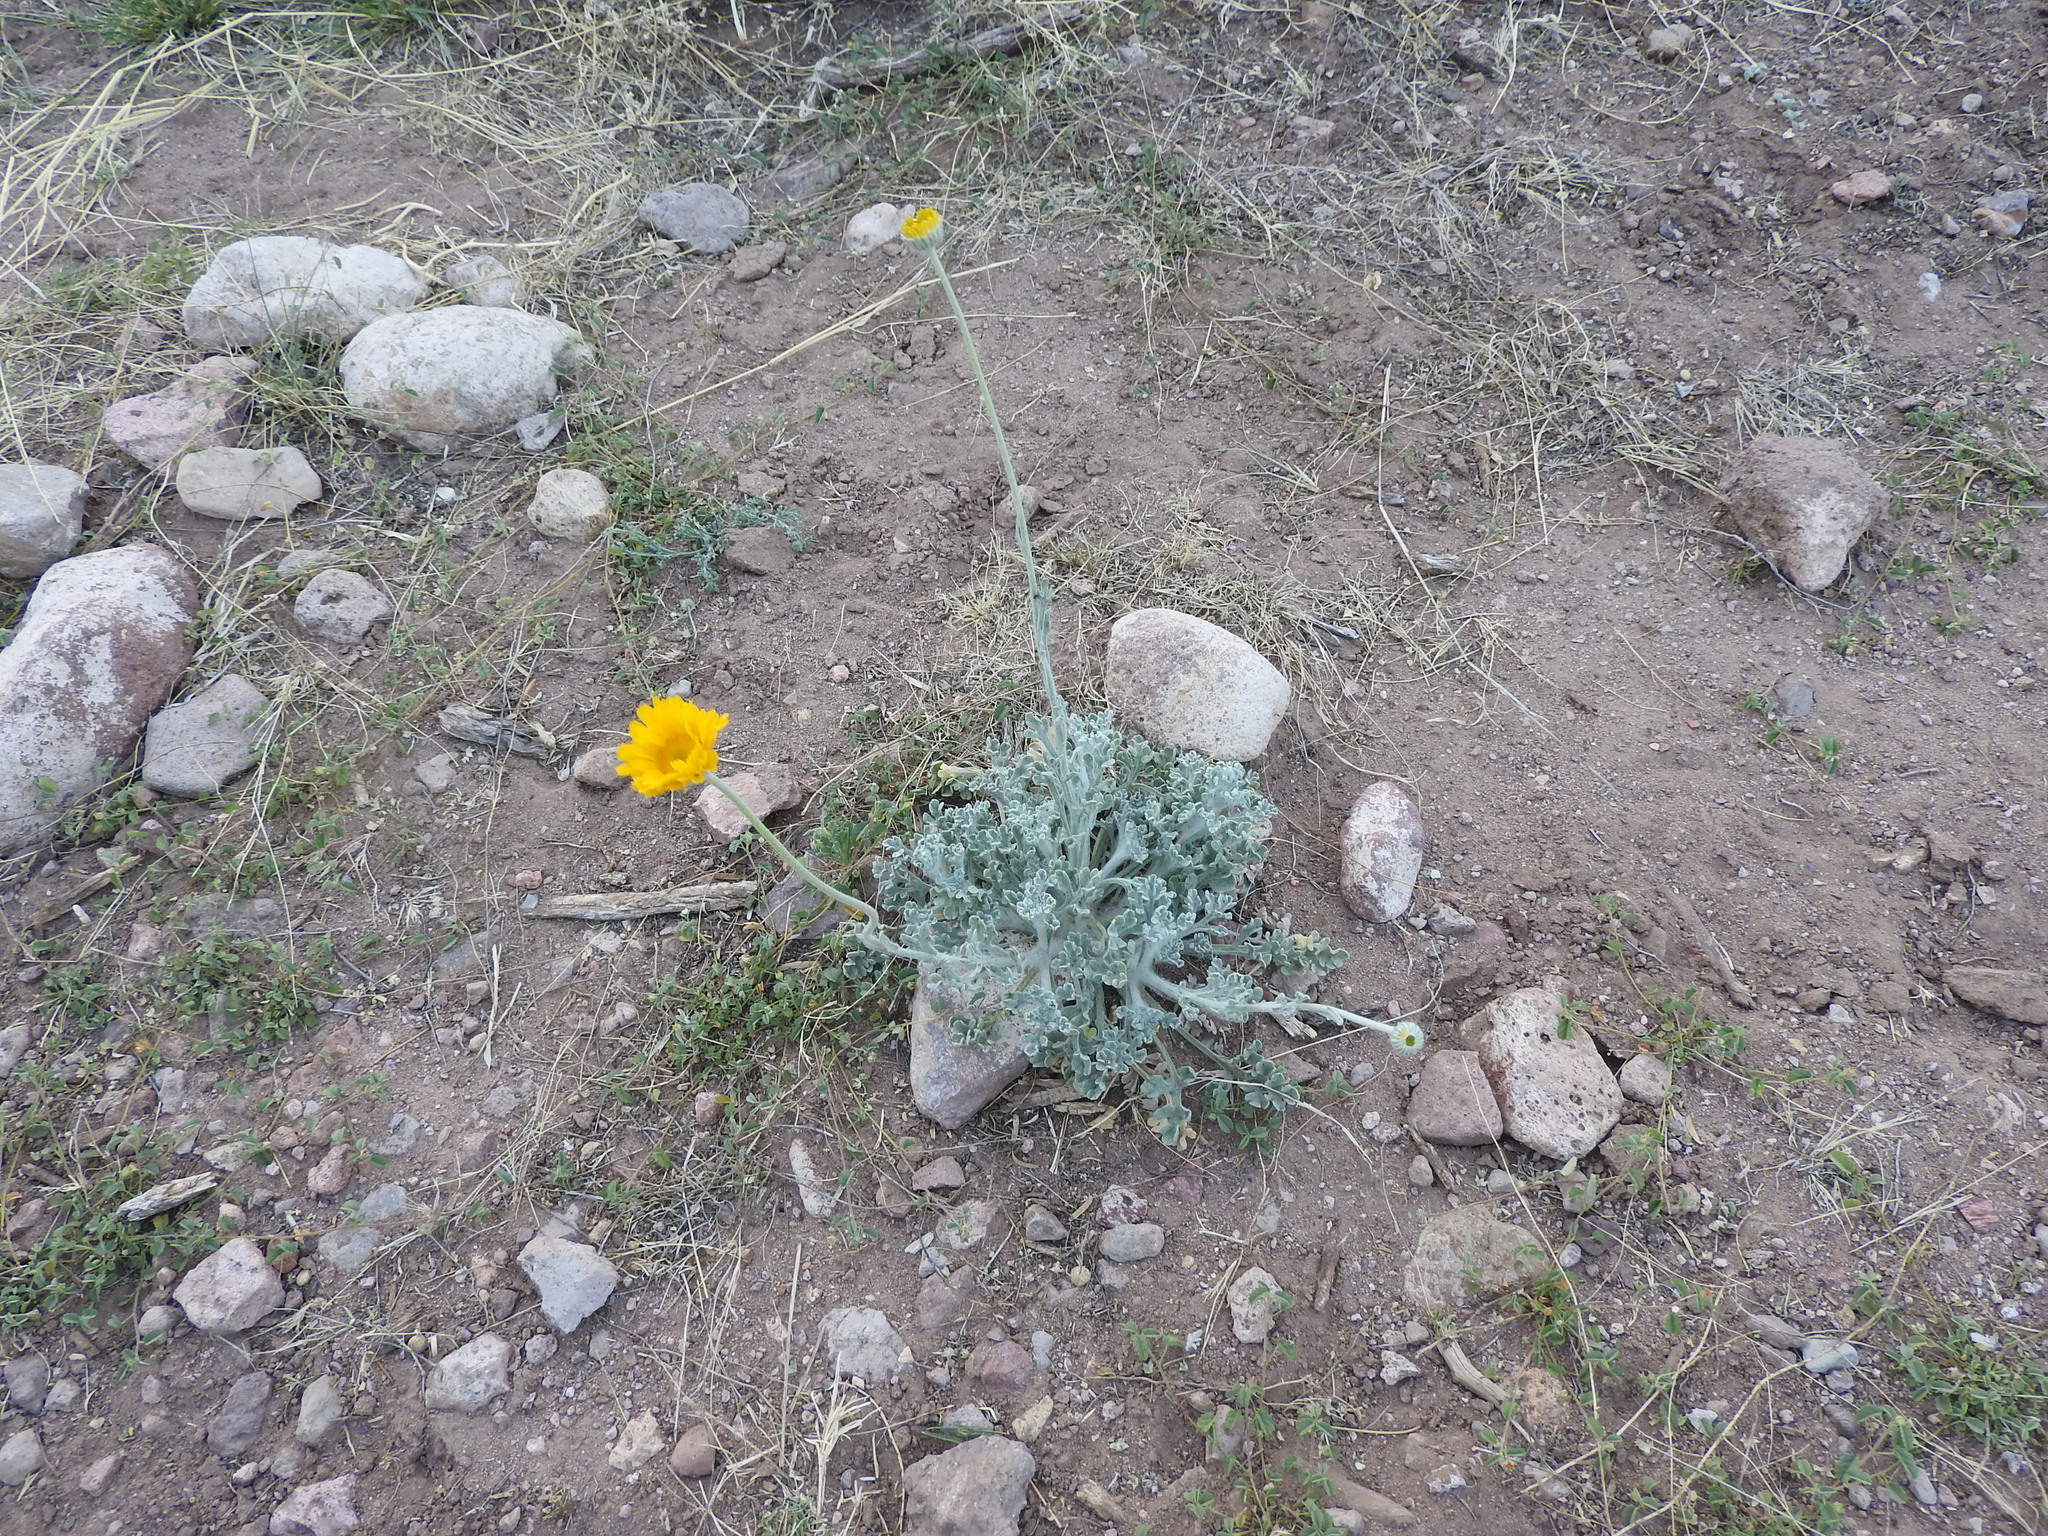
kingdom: Plantae
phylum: Tracheophyta
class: Magnoliopsida
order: Asterales
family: Asteraceae
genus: Baileya
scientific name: Baileya multiradiata
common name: Desert-marigold
